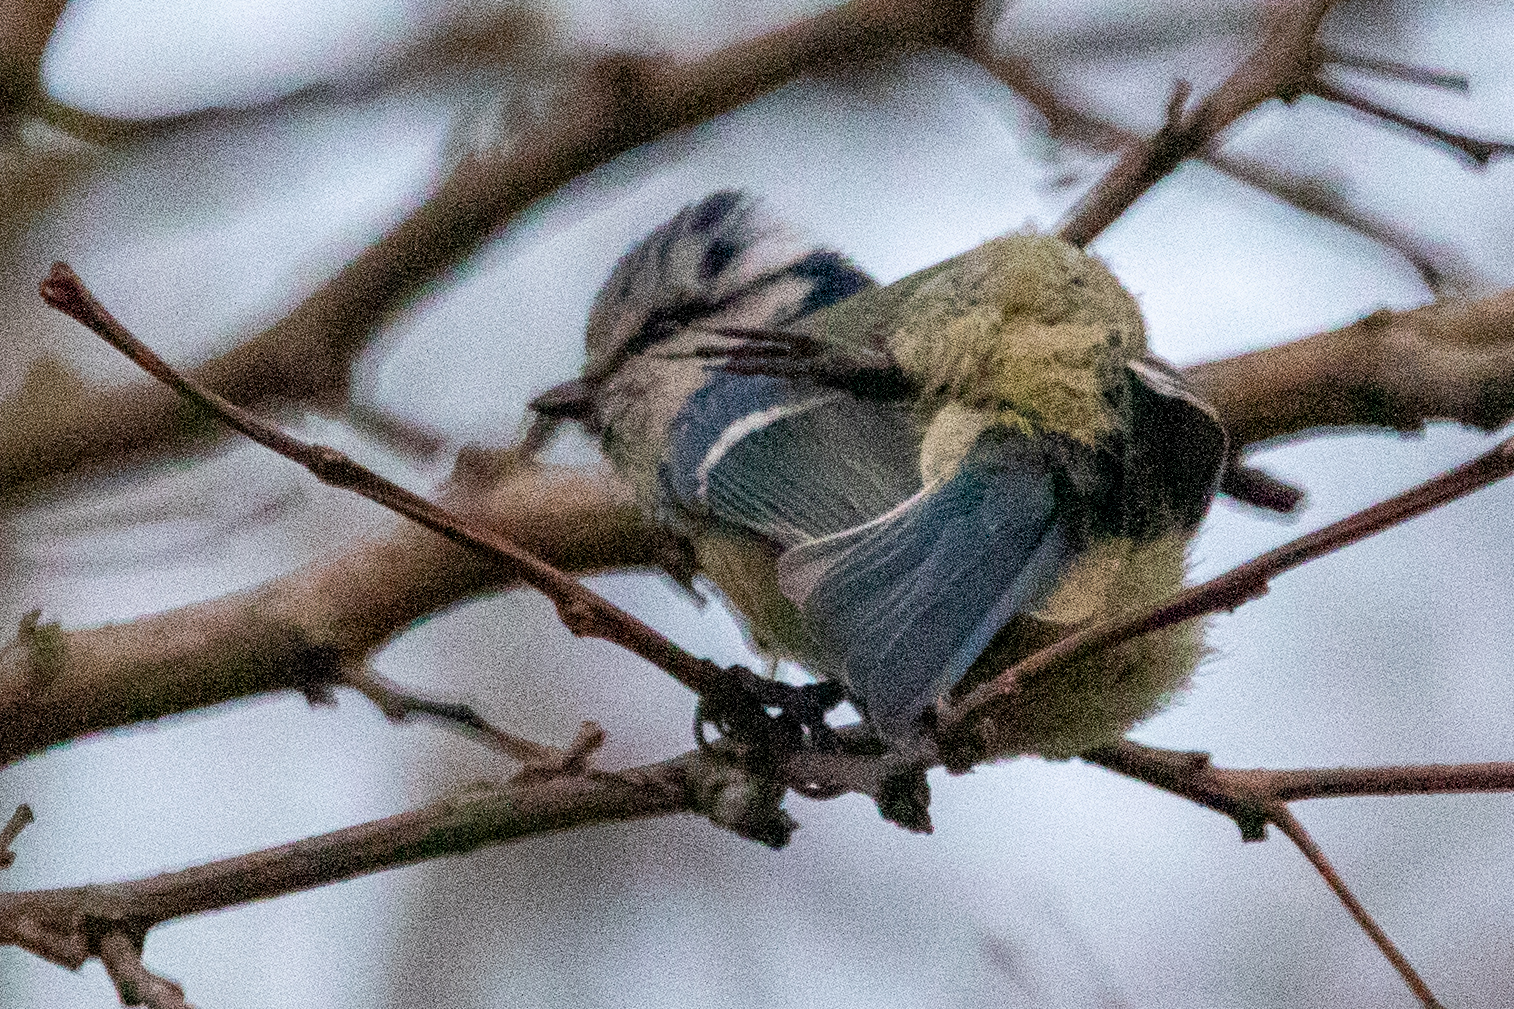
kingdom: Animalia
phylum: Chordata
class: Aves
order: Passeriformes
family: Paridae
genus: Cyanistes
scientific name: Cyanistes caeruleus
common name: Eurasian blue tit
